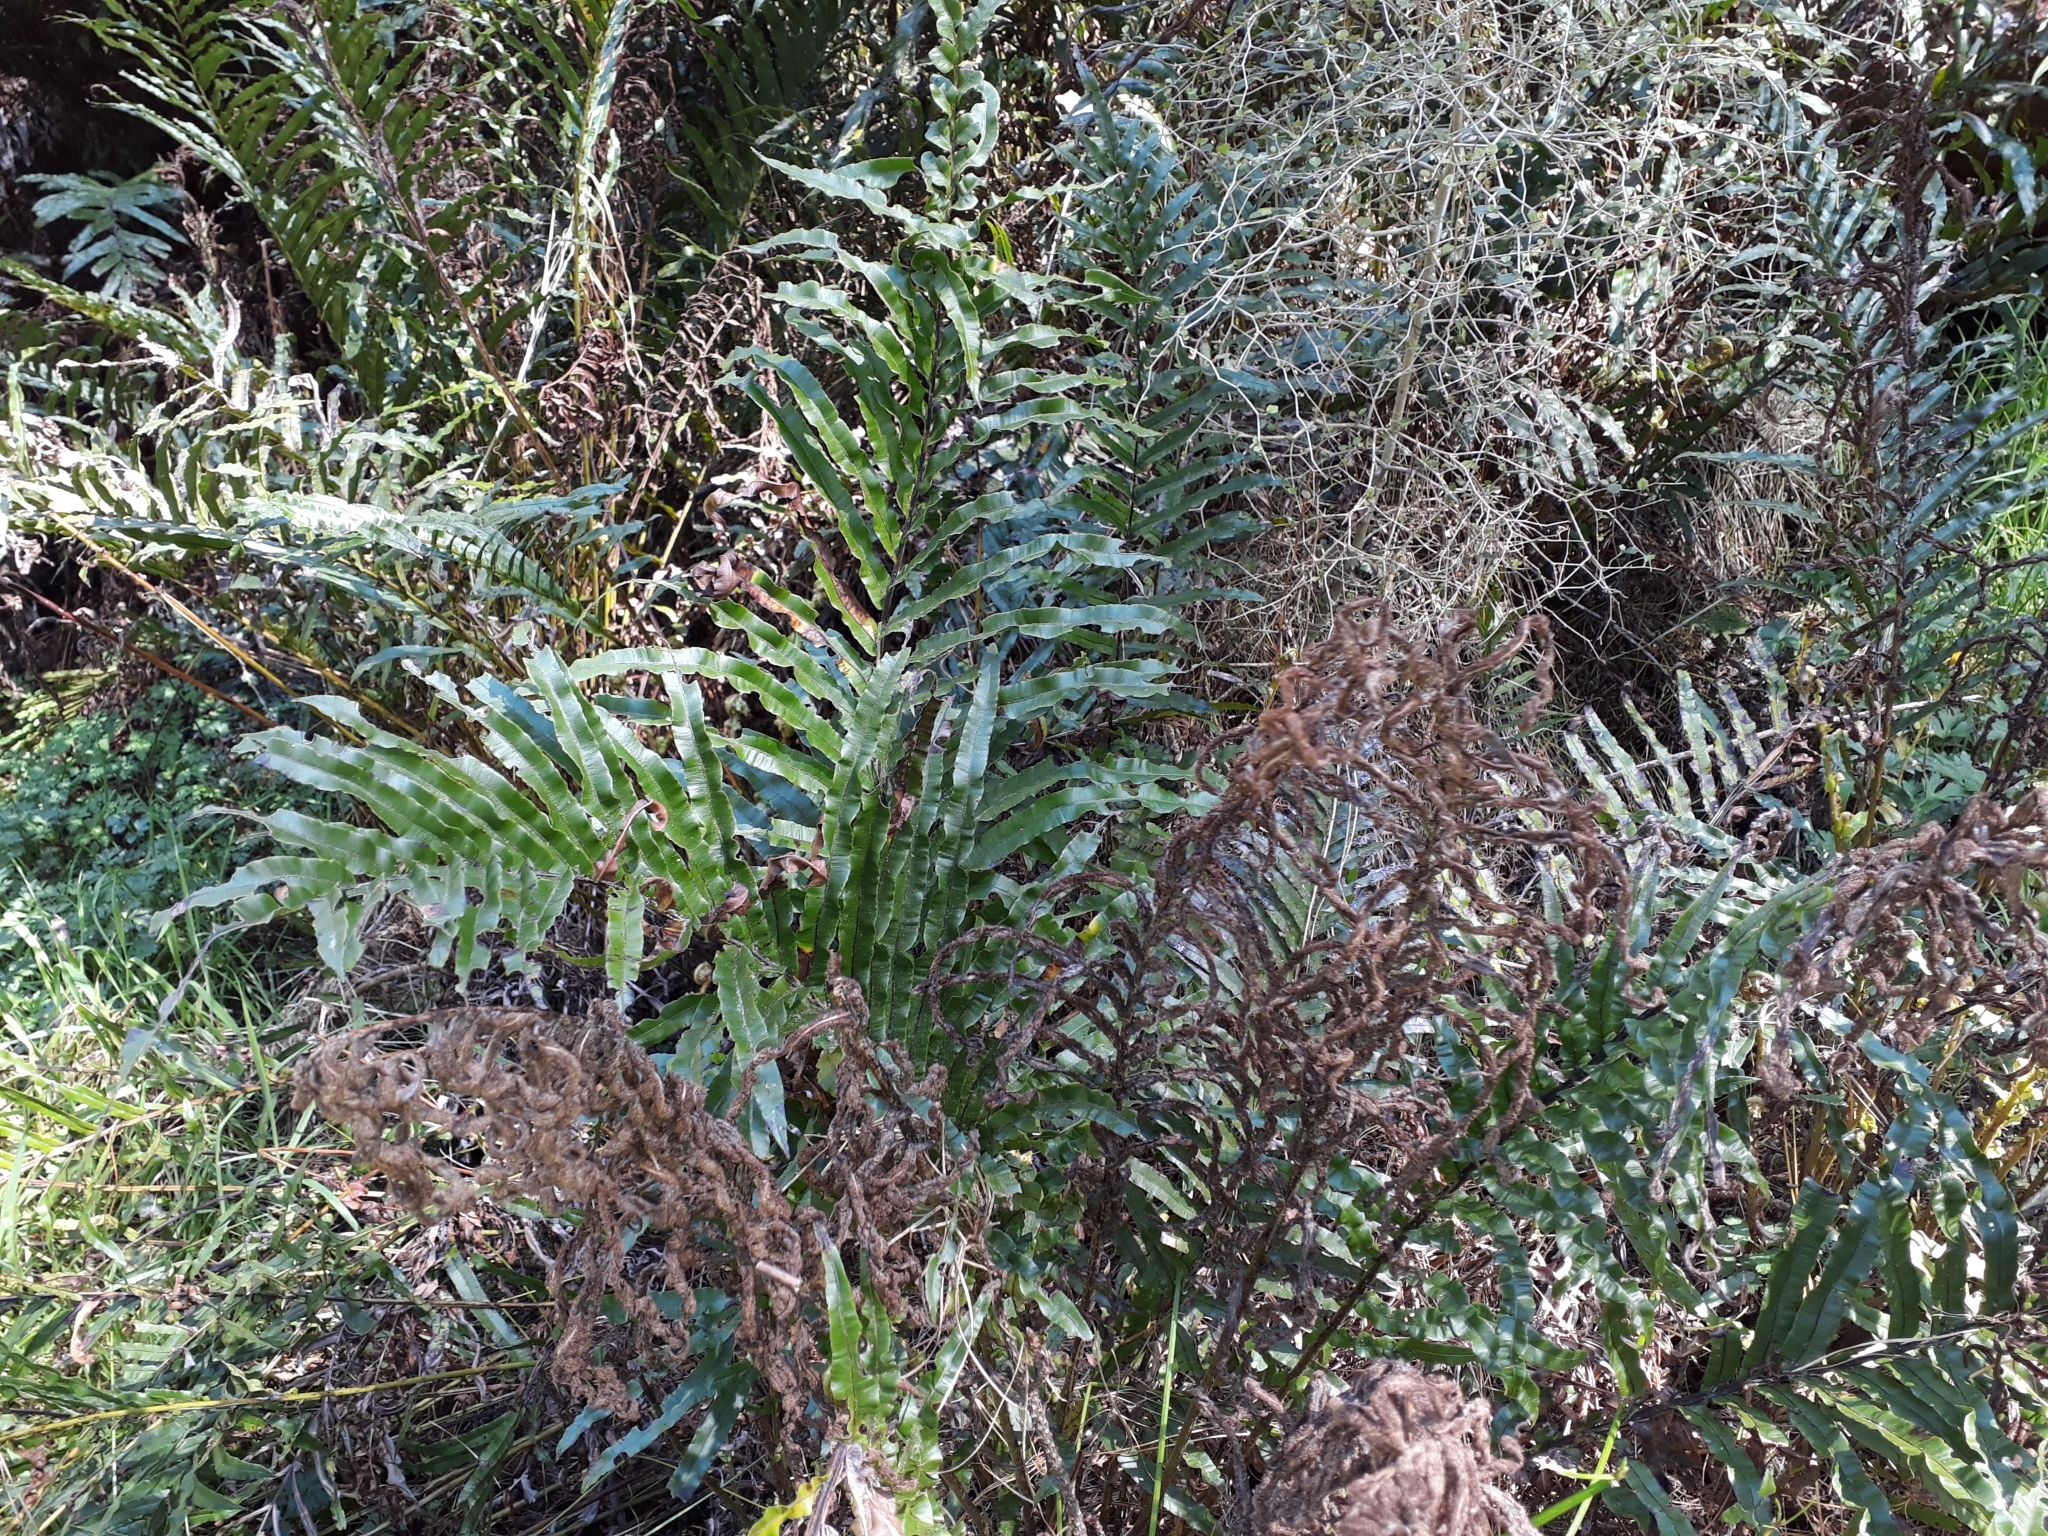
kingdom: Plantae
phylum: Tracheophyta
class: Polypodiopsida
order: Polypodiales
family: Blechnaceae
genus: Parablechnum
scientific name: Parablechnum minus
